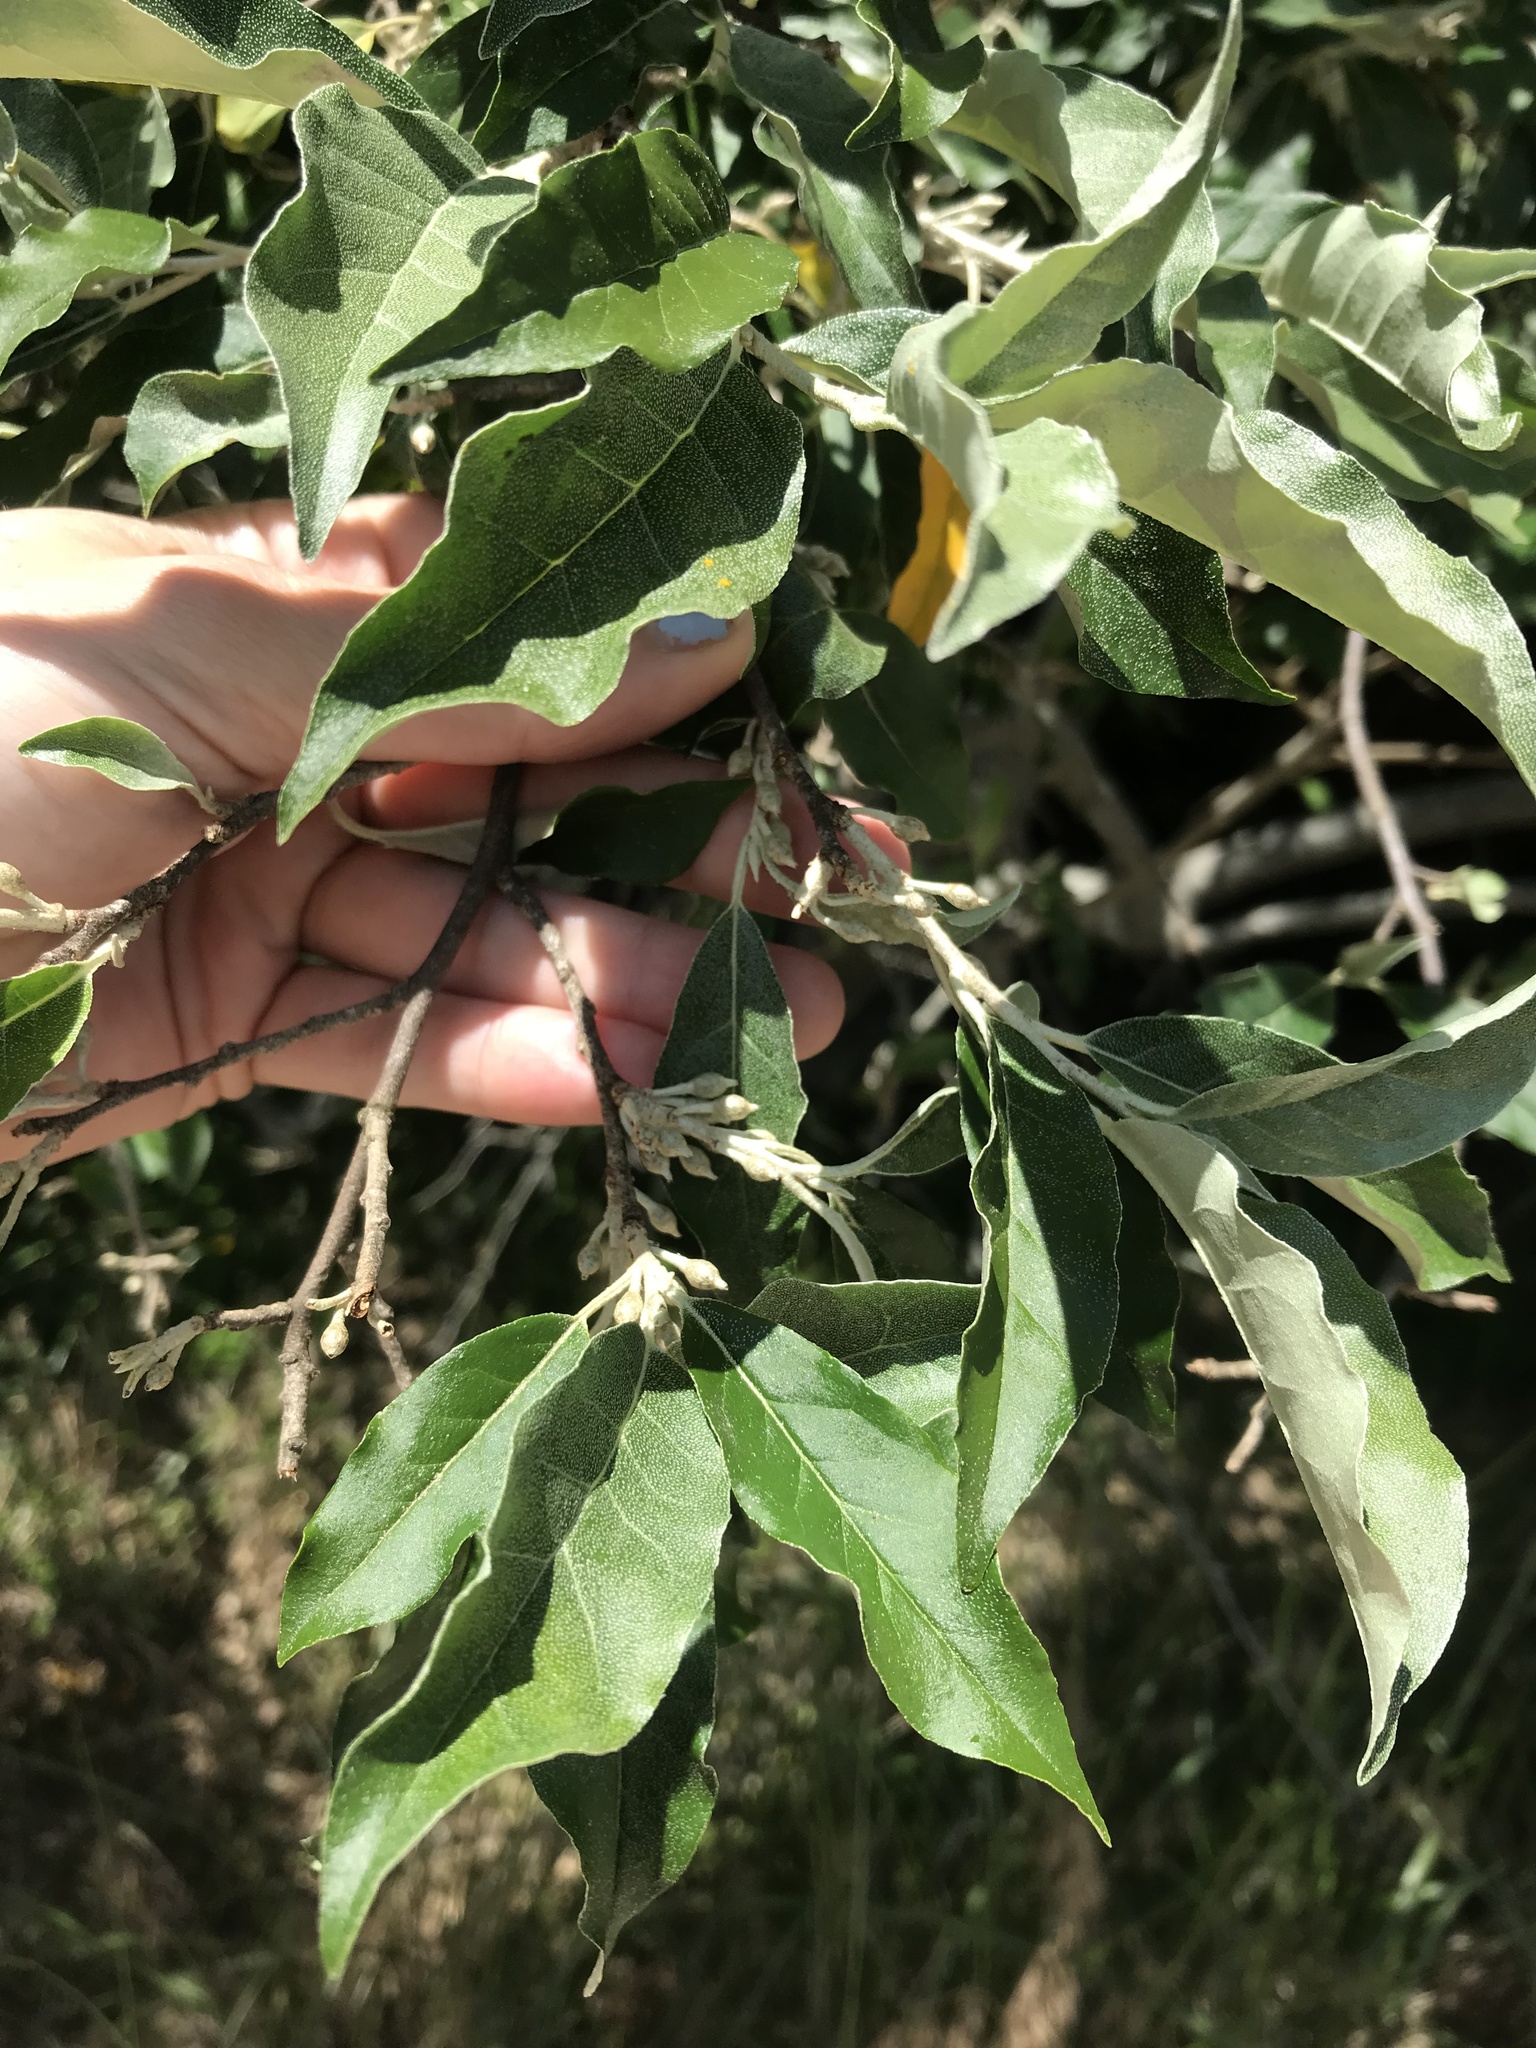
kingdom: Plantae
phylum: Tracheophyta
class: Magnoliopsida
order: Rosales
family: Elaeagnaceae
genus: Elaeagnus
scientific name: Elaeagnus umbellata
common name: Autumn olive
